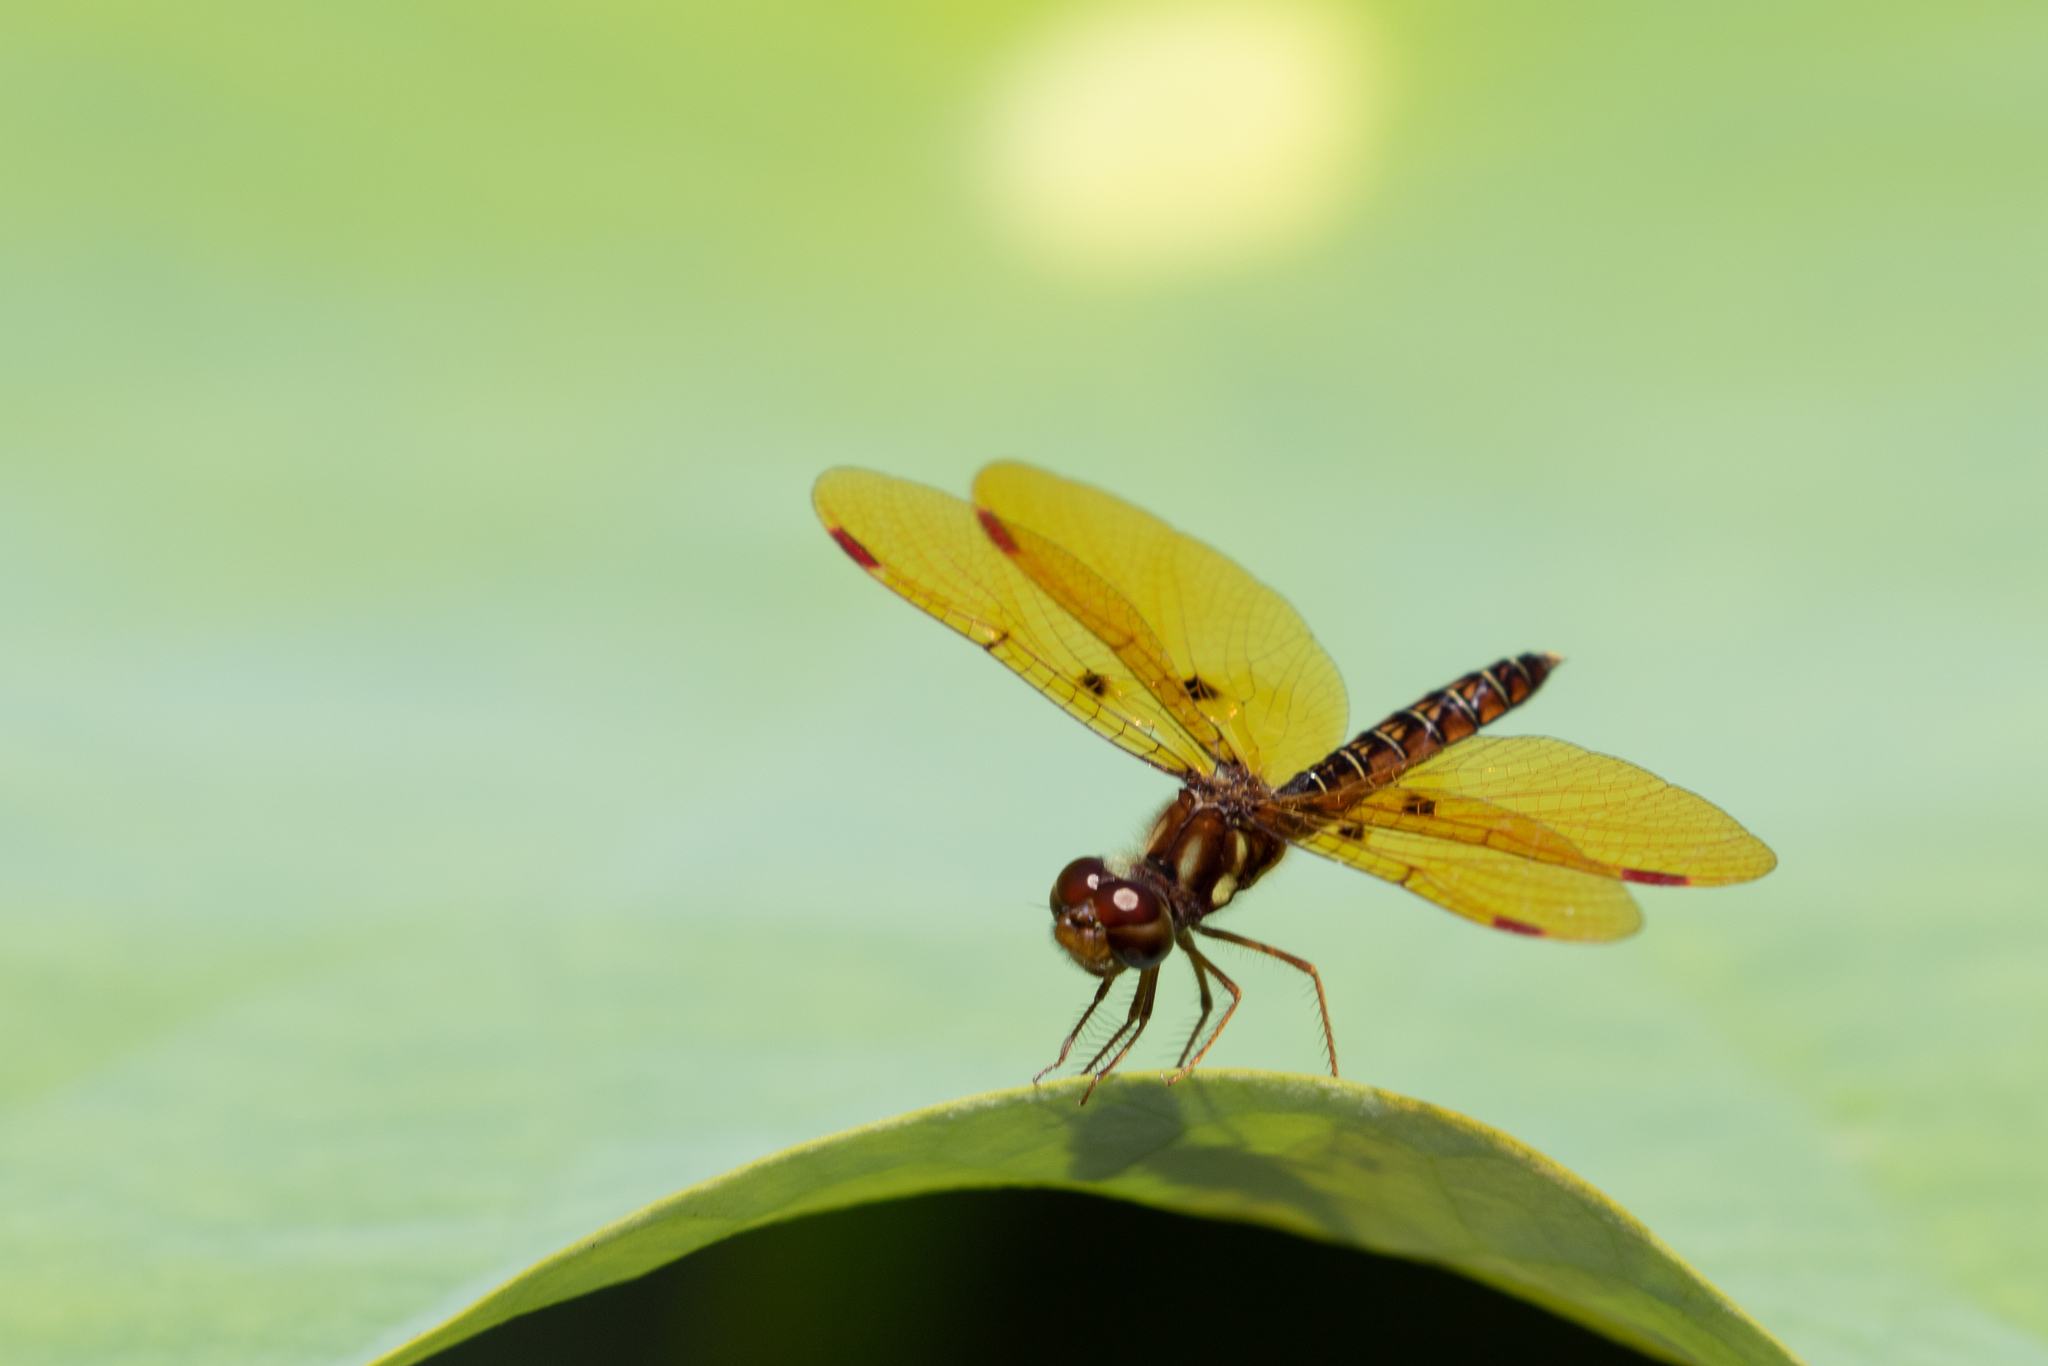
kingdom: Animalia
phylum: Arthropoda
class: Insecta
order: Odonata
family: Libellulidae
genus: Perithemis
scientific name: Perithemis tenera
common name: Eastern amberwing
